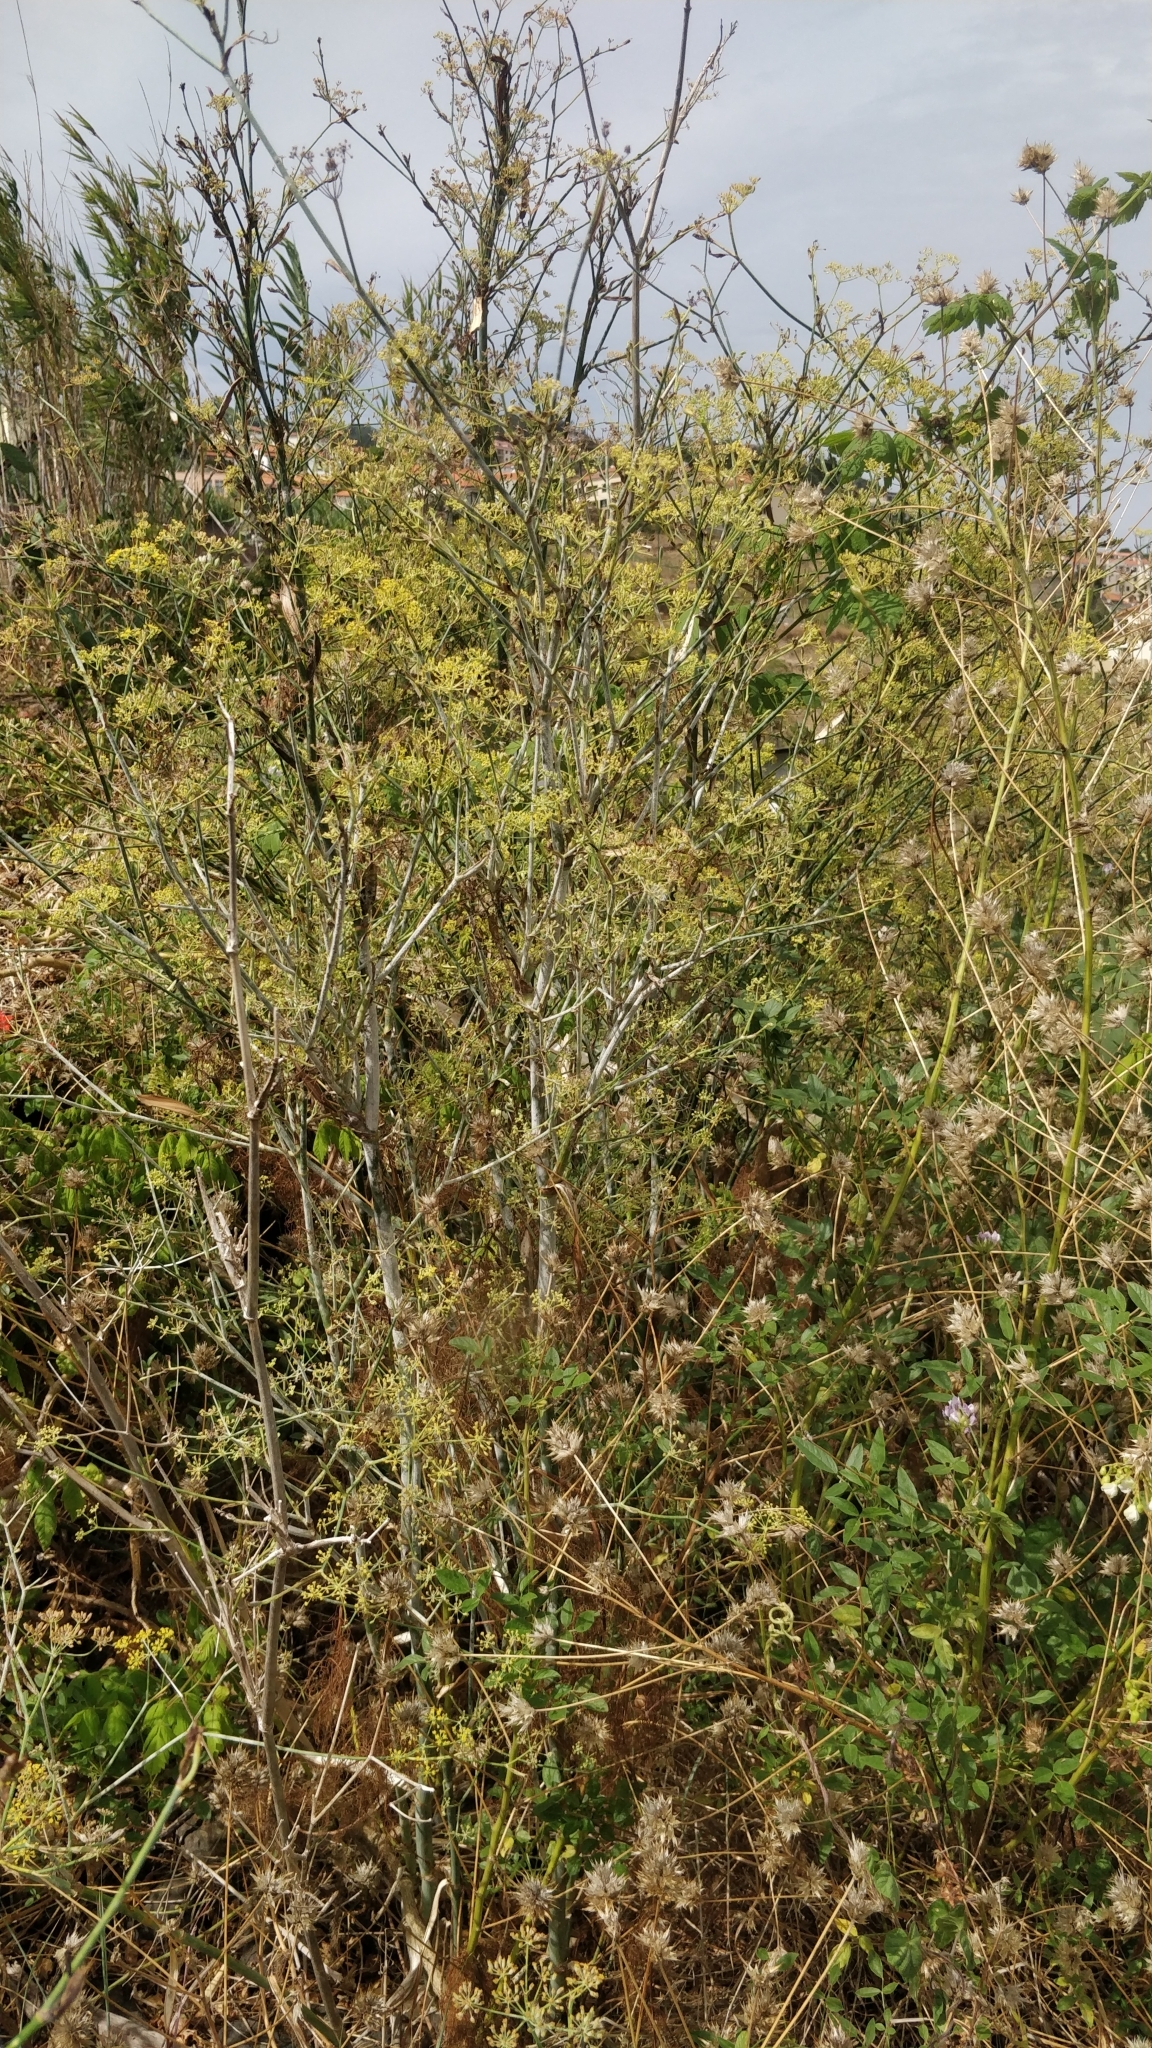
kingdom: Plantae
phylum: Tracheophyta
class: Magnoliopsida
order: Apiales
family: Apiaceae
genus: Foeniculum
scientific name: Foeniculum vulgare
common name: Fennel
